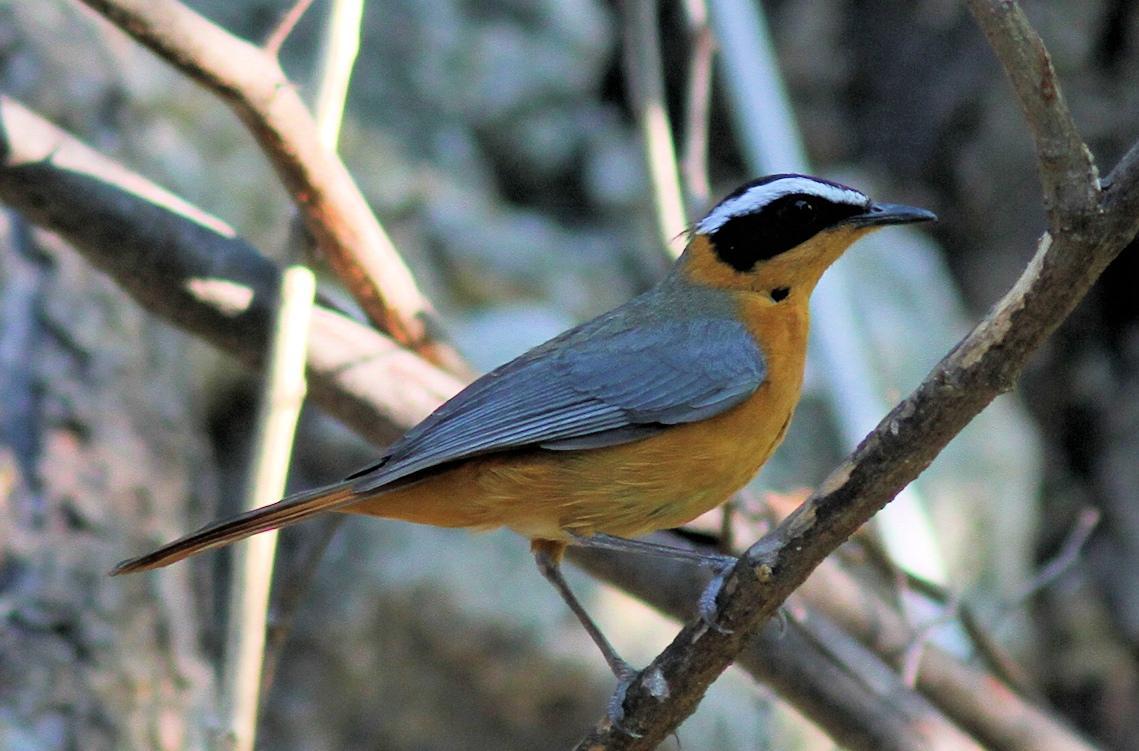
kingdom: Animalia
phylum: Chordata
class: Aves
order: Passeriformes
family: Muscicapidae
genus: Cossypha
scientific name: Cossypha heuglini
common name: White-browed robin-chat
